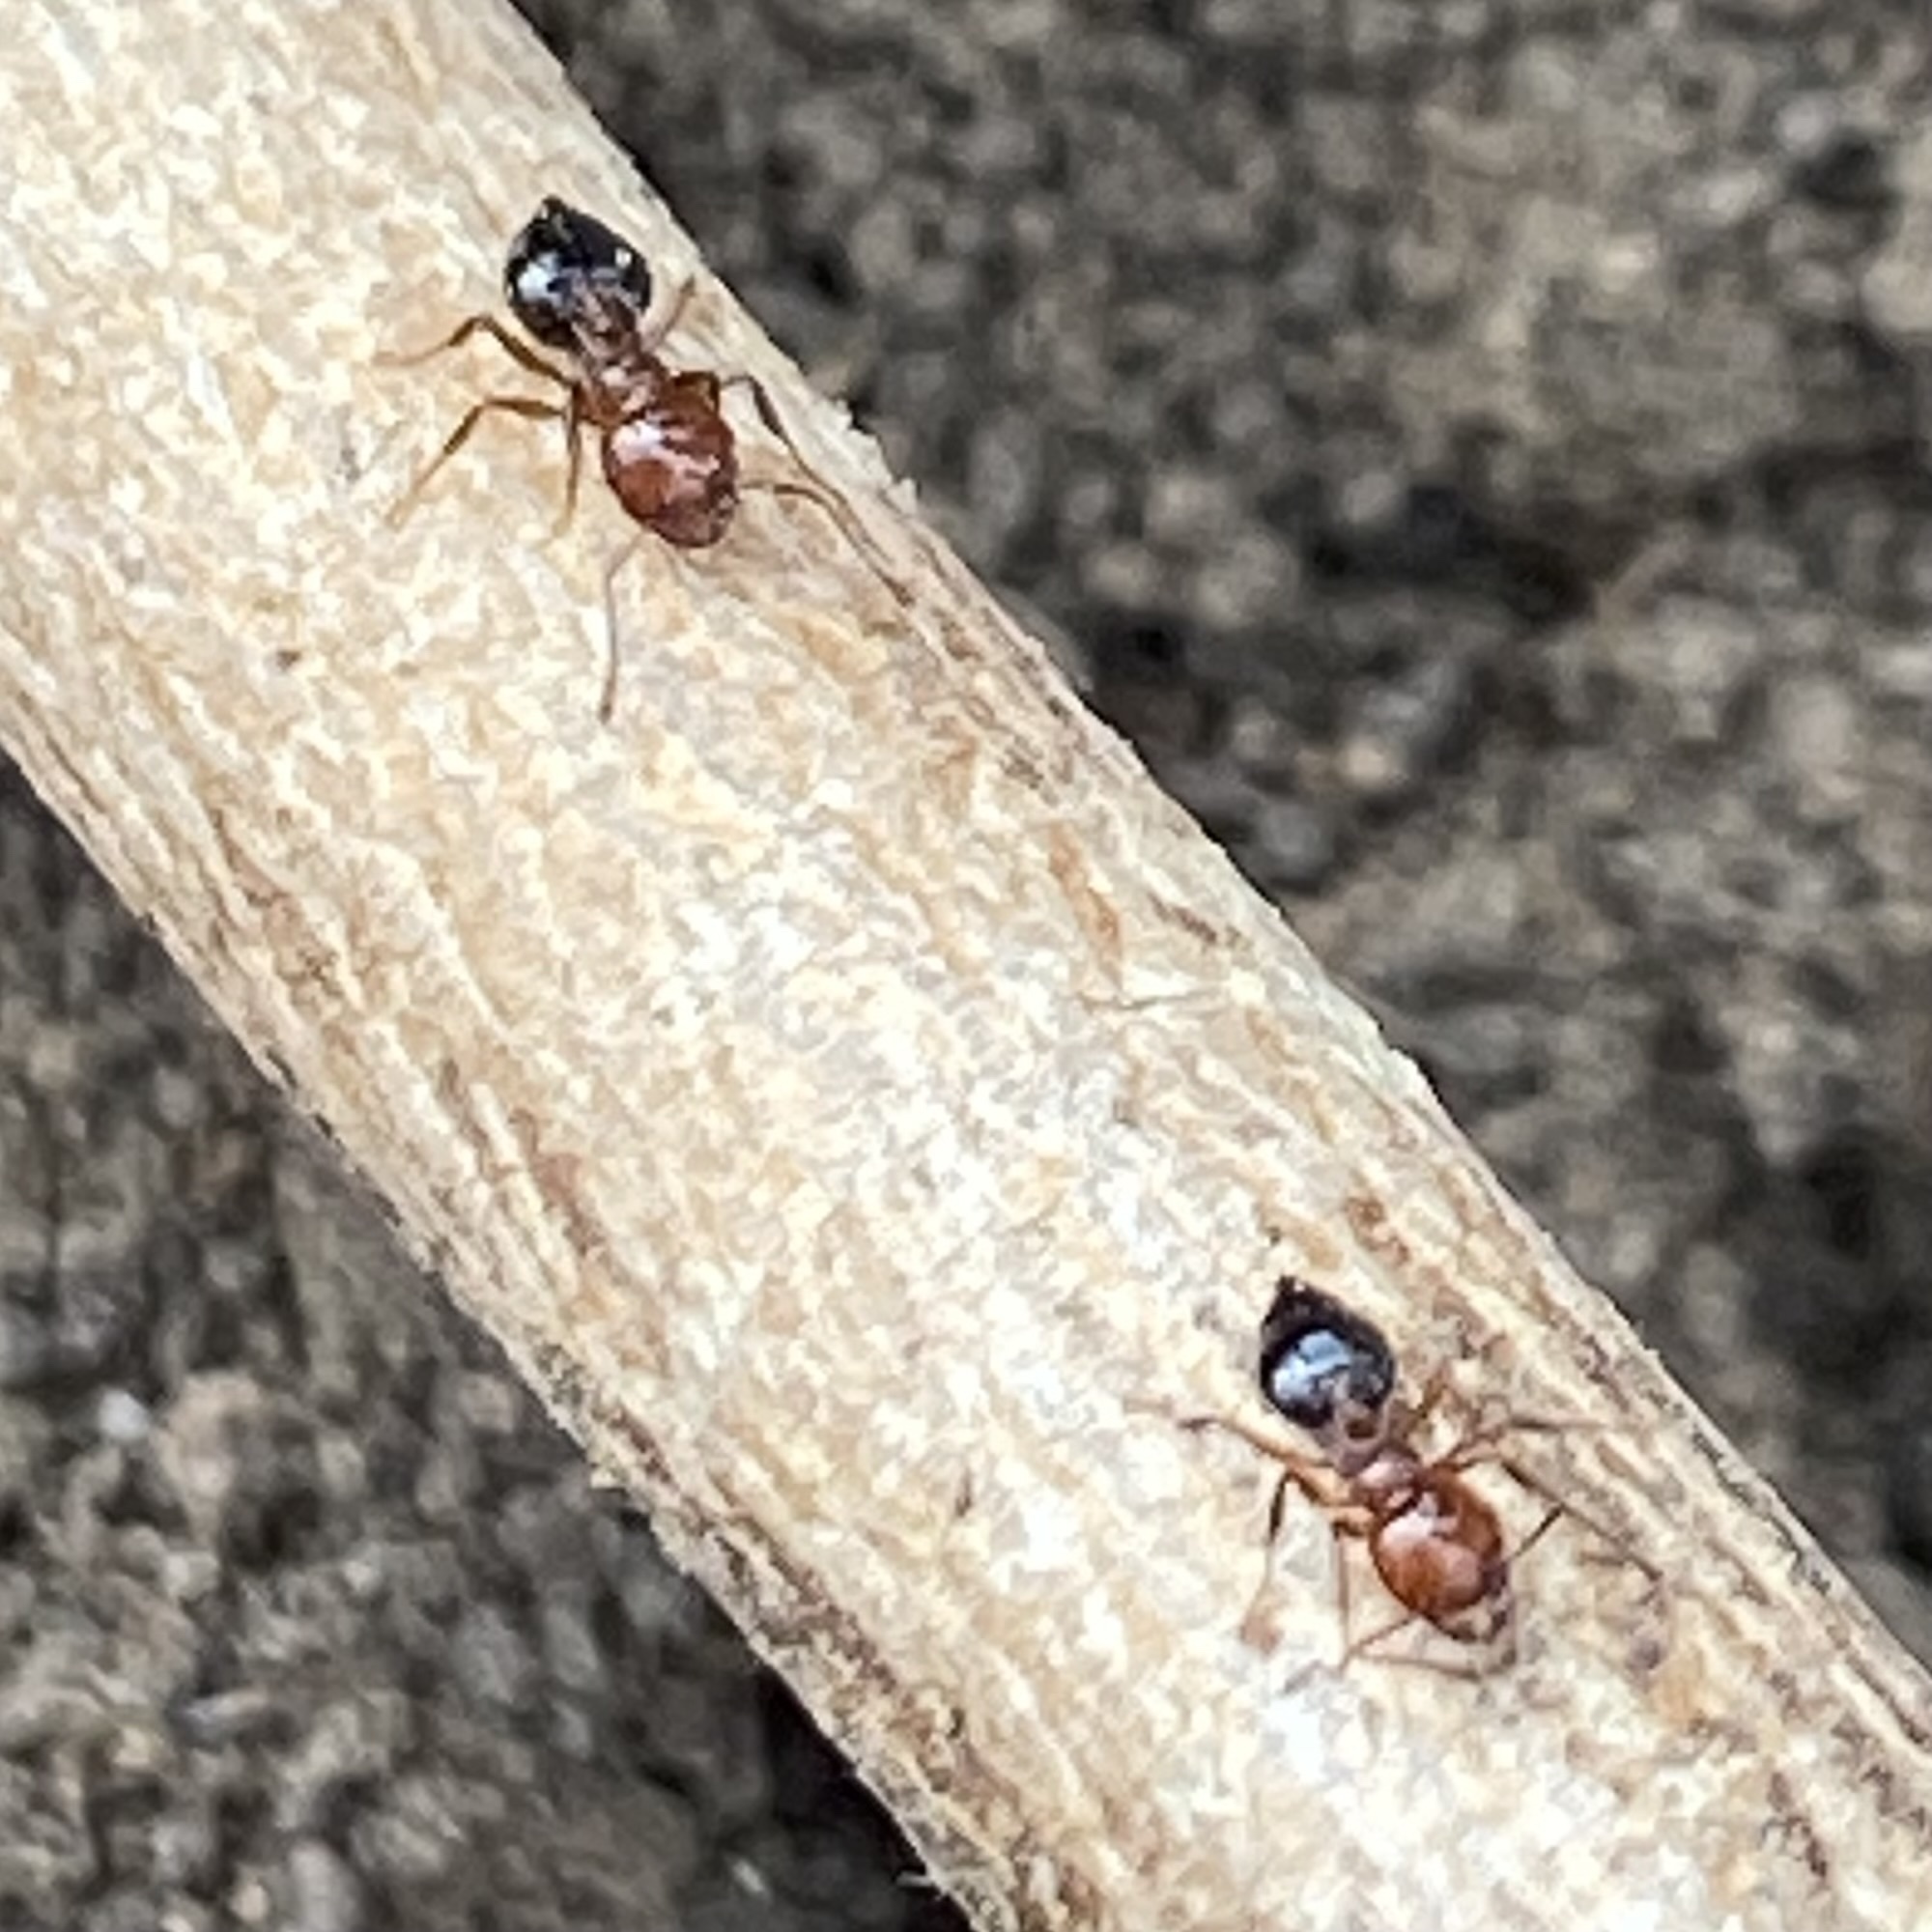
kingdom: Animalia
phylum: Arthropoda
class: Insecta
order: Hymenoptera
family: Formicidae
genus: Crematogaster
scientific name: Crematogaster laeviuscula
